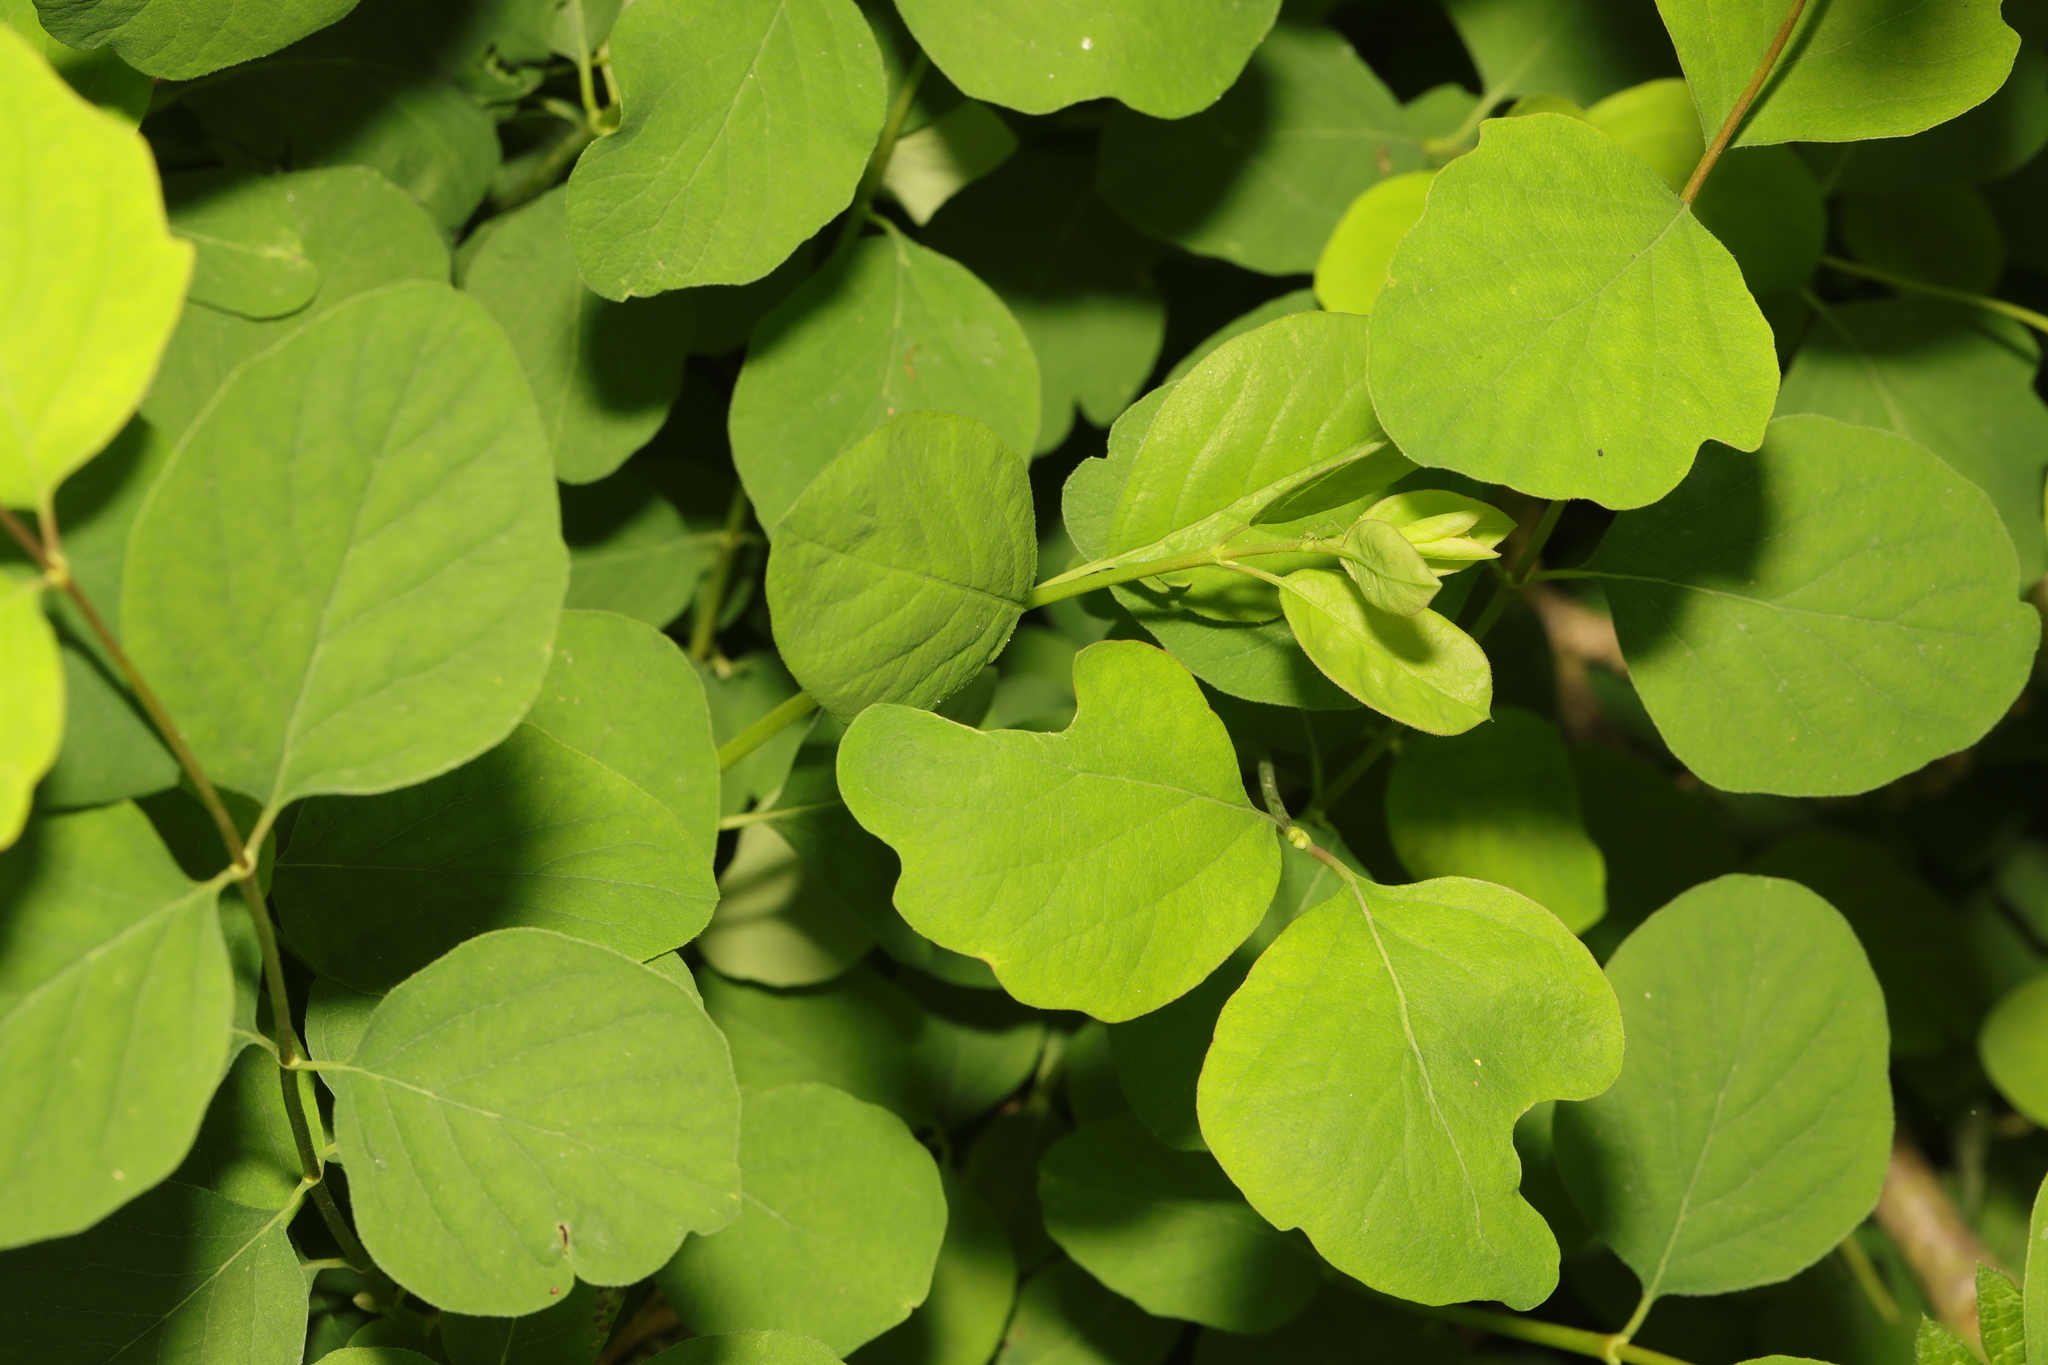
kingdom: Plantae
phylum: Tracheophyta
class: Magnoliopsida
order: Dipsacales
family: Caprifoliaceae
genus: Symphoricarpos
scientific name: Symphoricarpos albus
